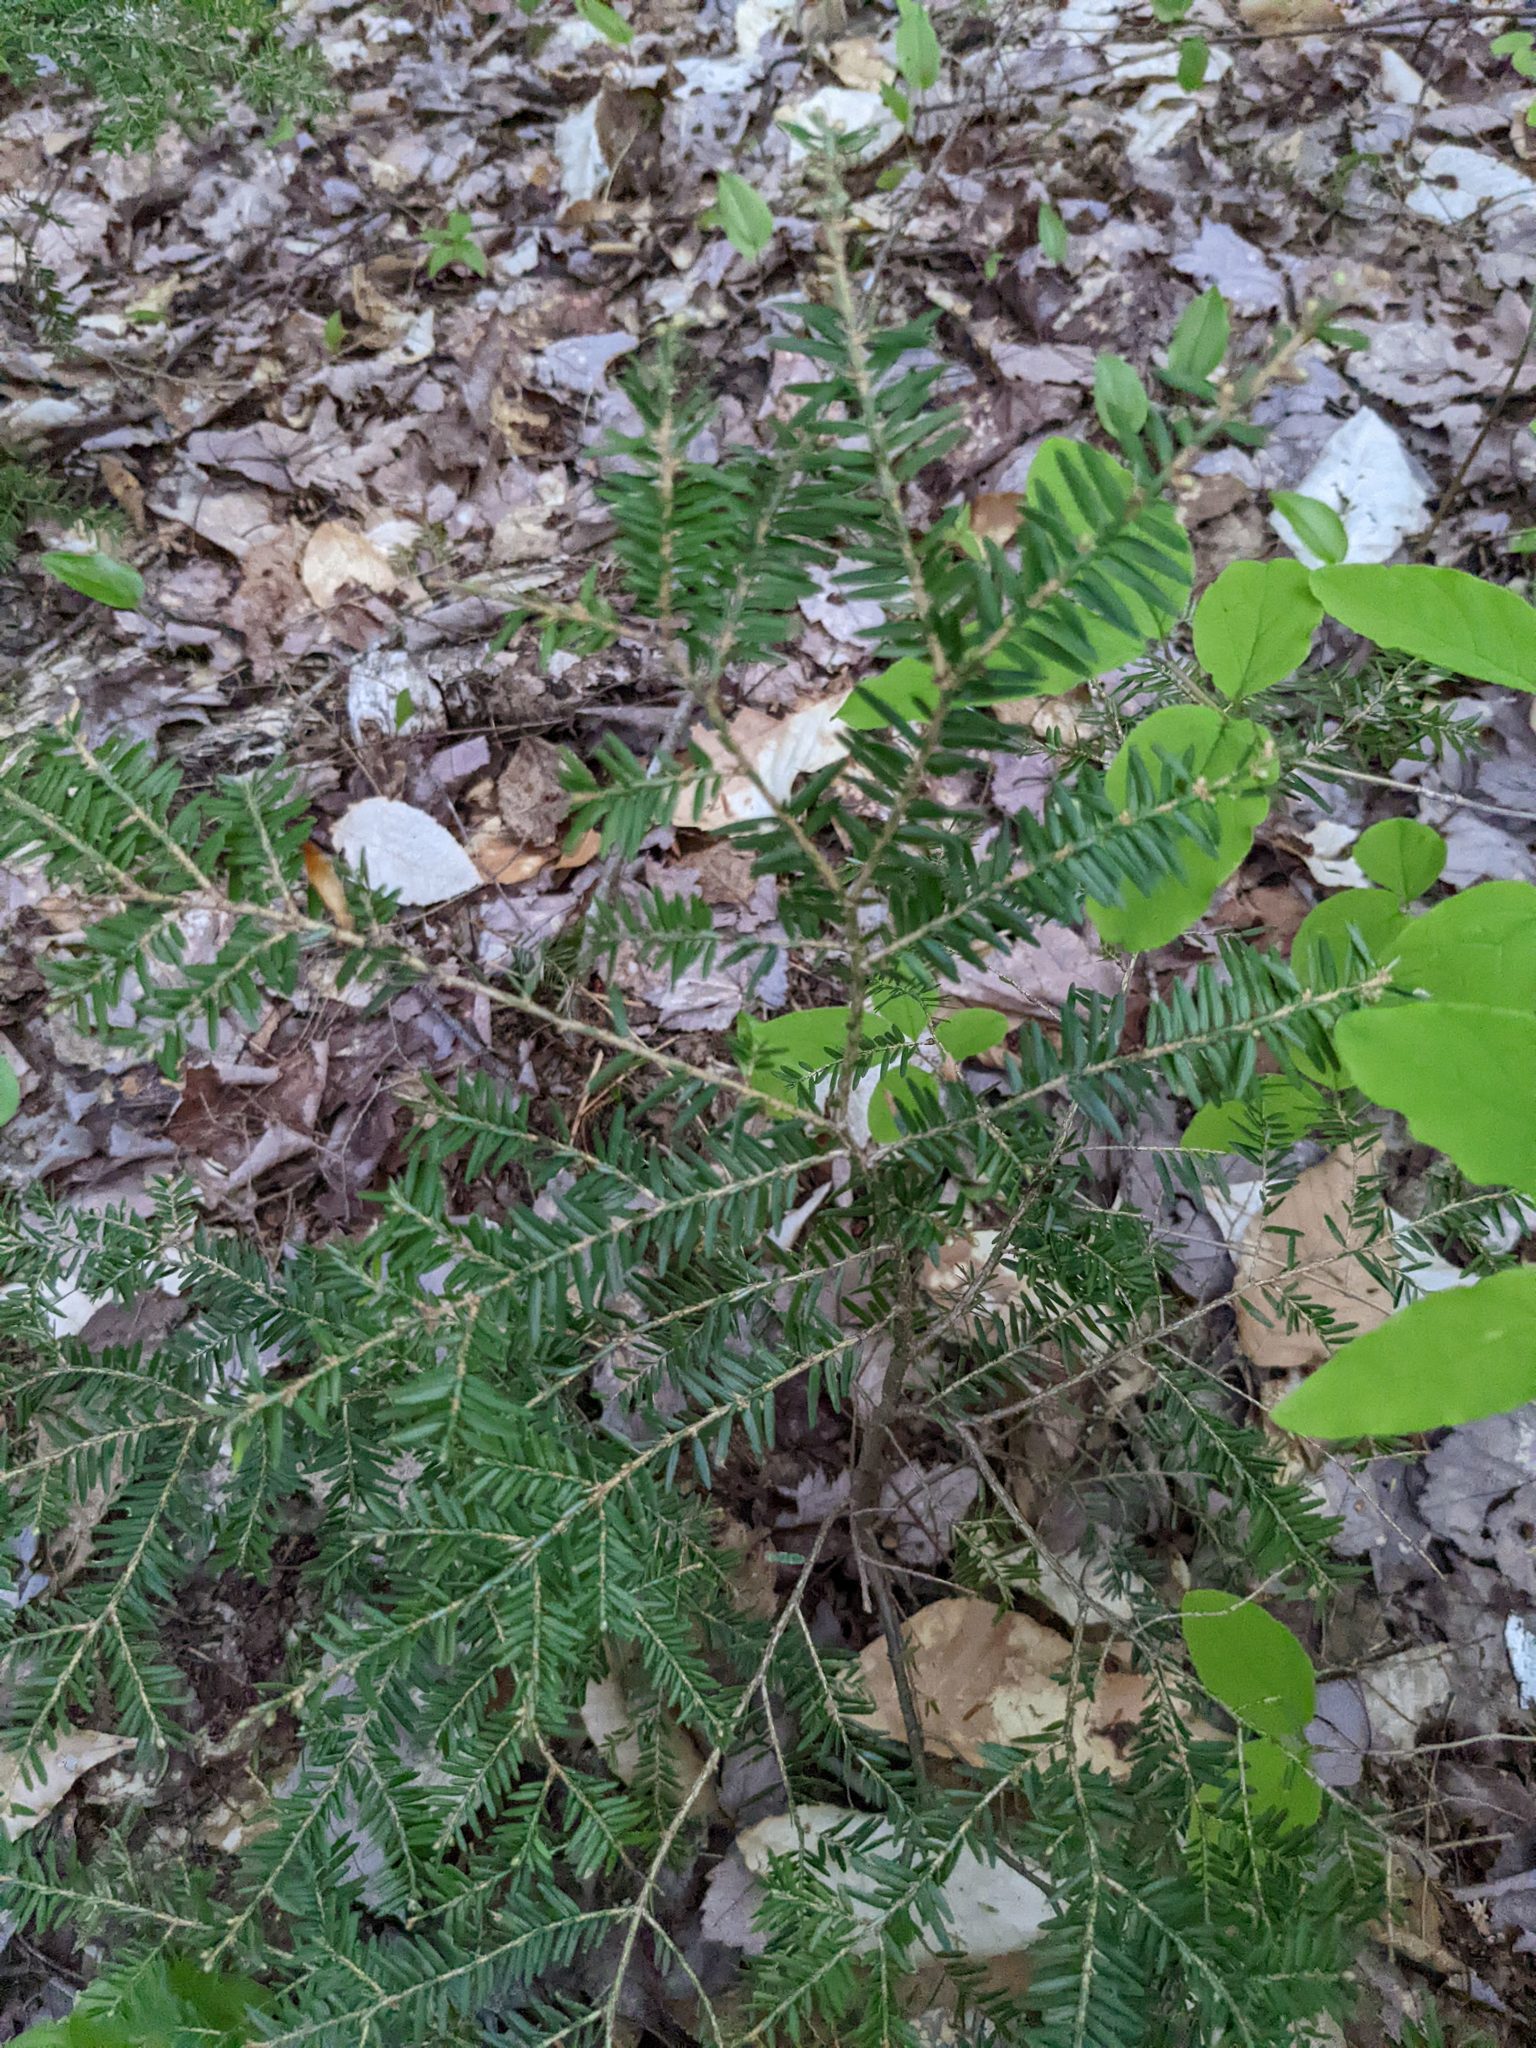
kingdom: Plantae
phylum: Tracheophyta
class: Pinopsida
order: Pinales
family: Pinaceae
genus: Tsuga
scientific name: Tsuga canadensis
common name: Eastern hemlock
